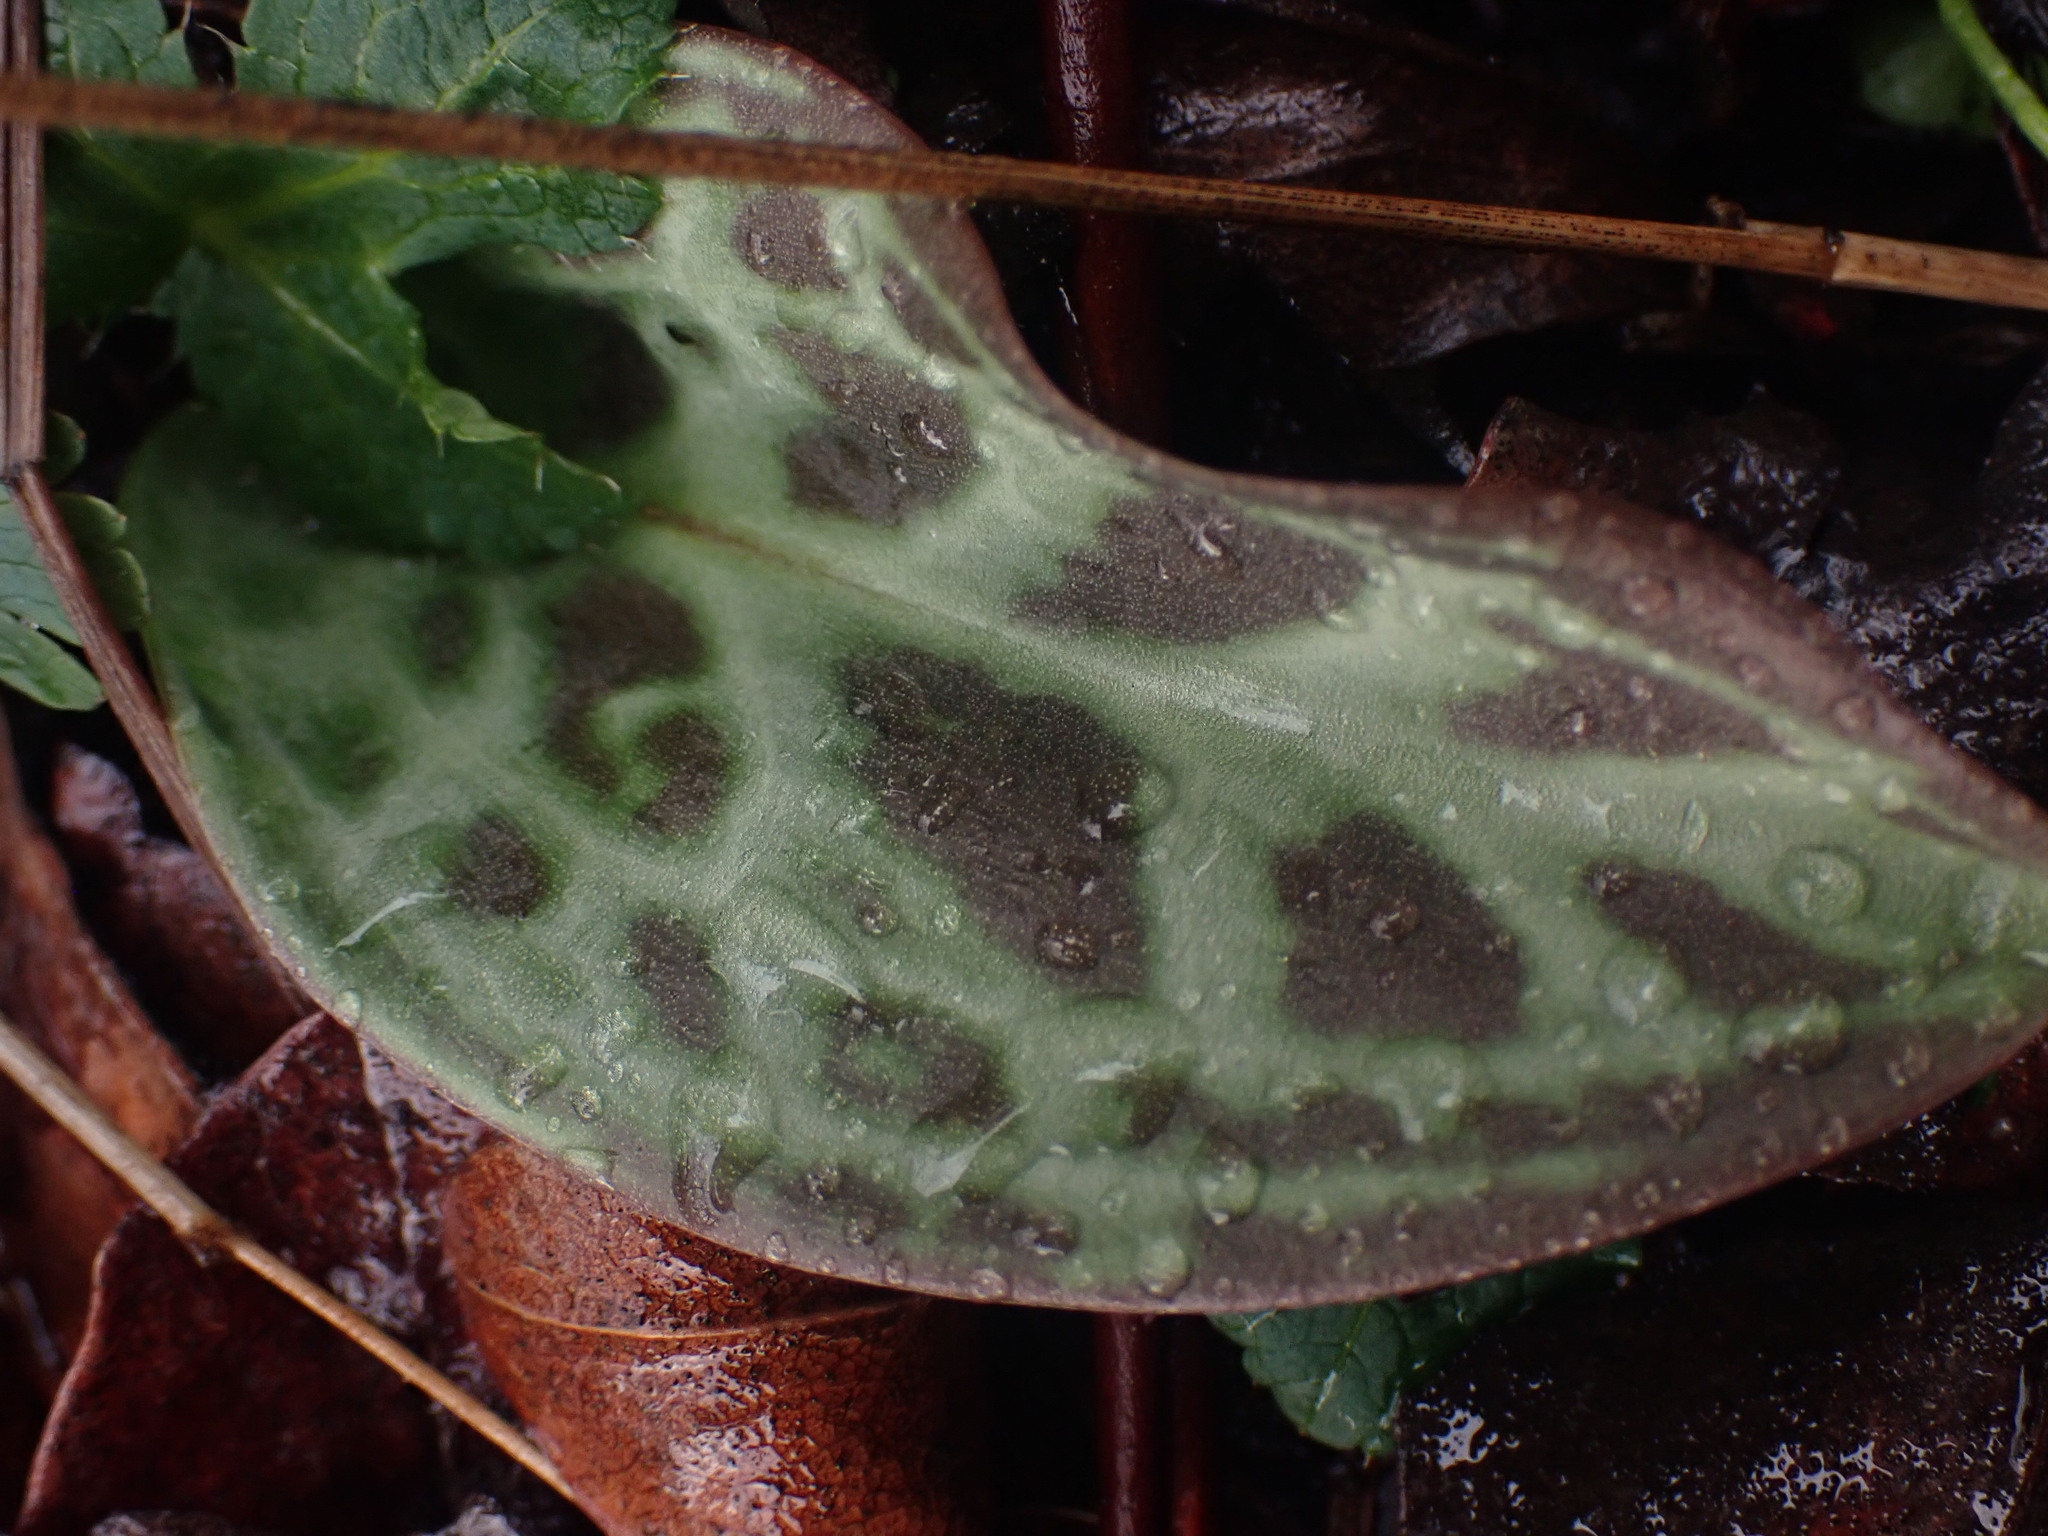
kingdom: Plantae
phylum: Tracheophyta
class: Liliopsida
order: Liliales
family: Liliaceae
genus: Erythronium
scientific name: Erythronium oregonum
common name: Giant adder's-tongue
